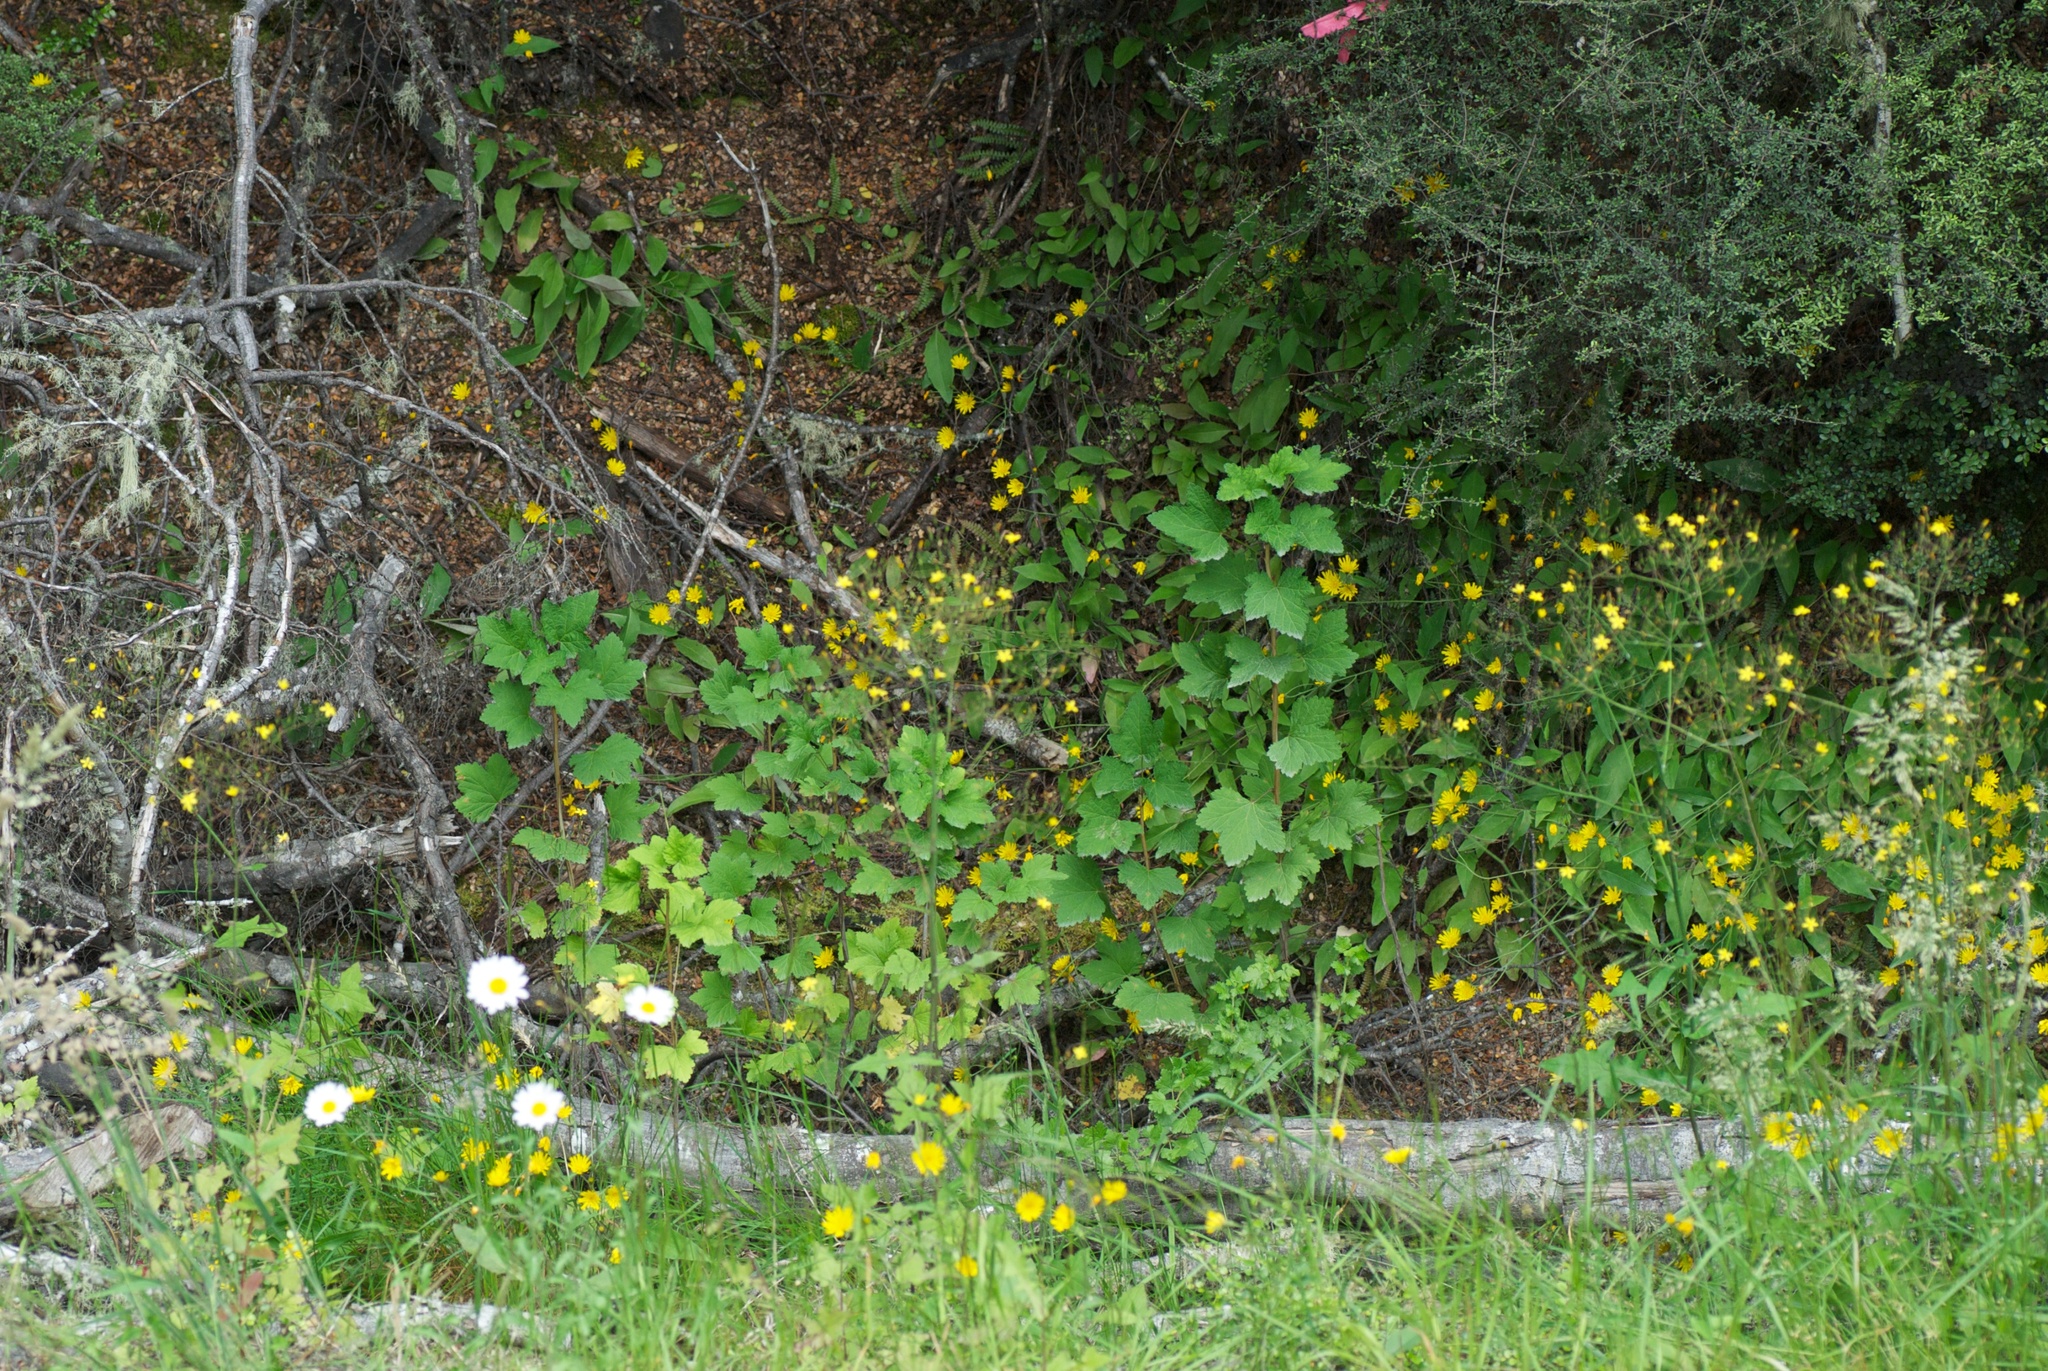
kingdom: Plantae
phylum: Tracheophyta
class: Magnoliopsida
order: Saxifragales
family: Grossulariaceae
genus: Ribes
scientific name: Ribes uva-crispa
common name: Gooseberry
